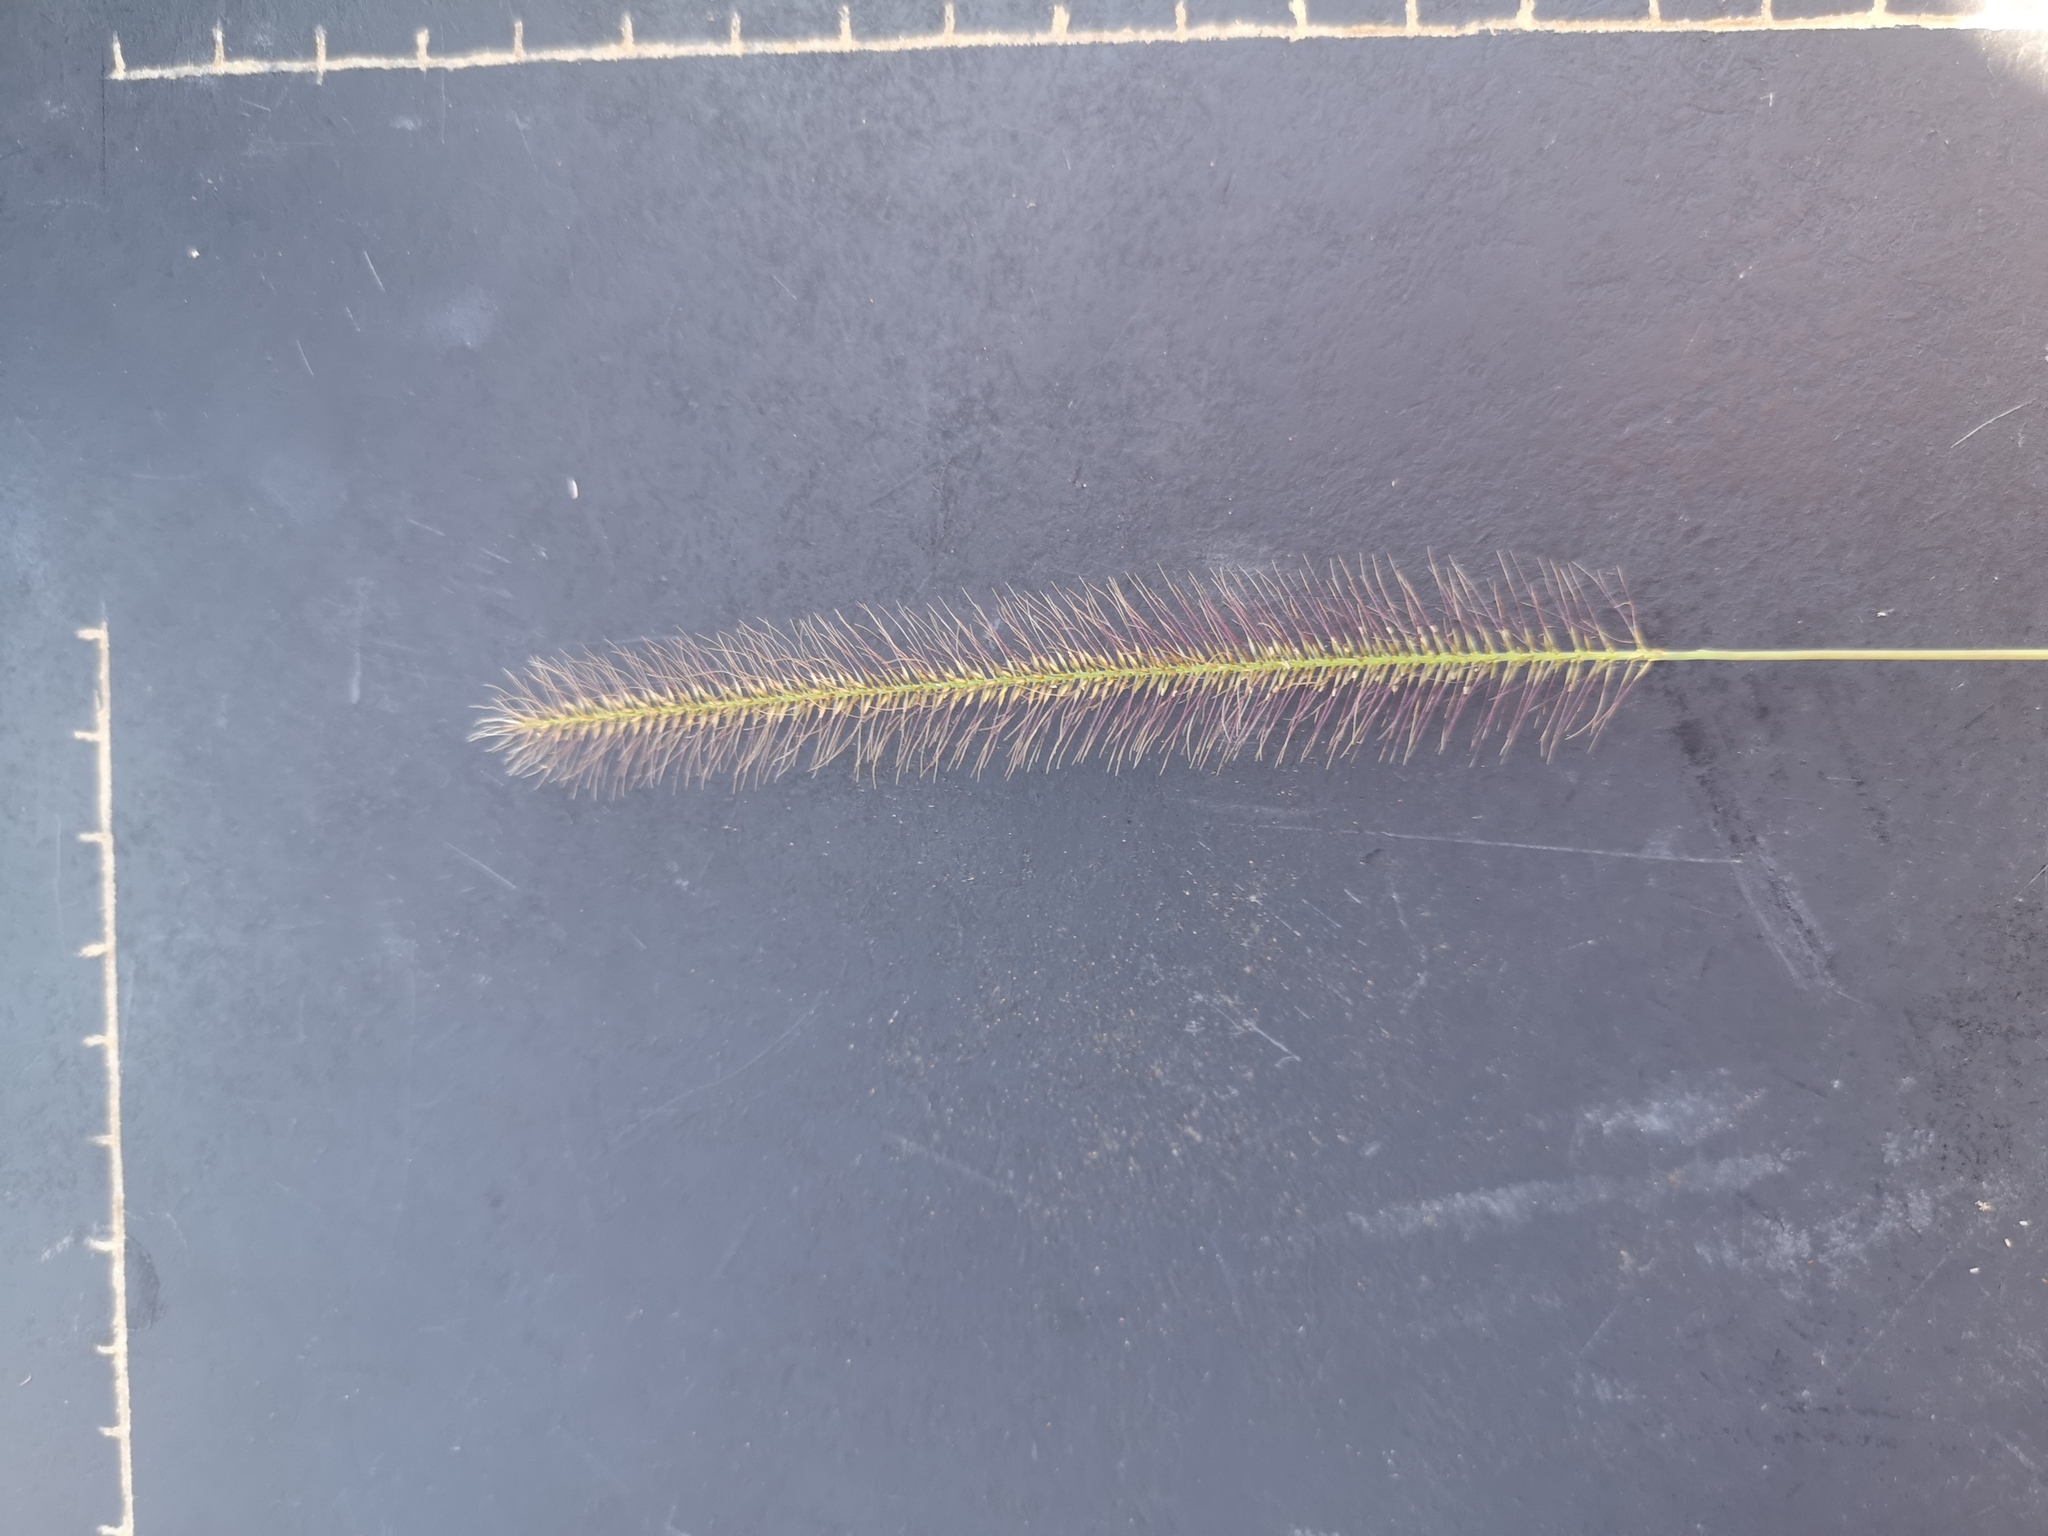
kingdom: Plantae
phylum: Tracheophyta
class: Liliopsida
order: Poales
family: Poaceae
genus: Perotis
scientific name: Perotis patens
